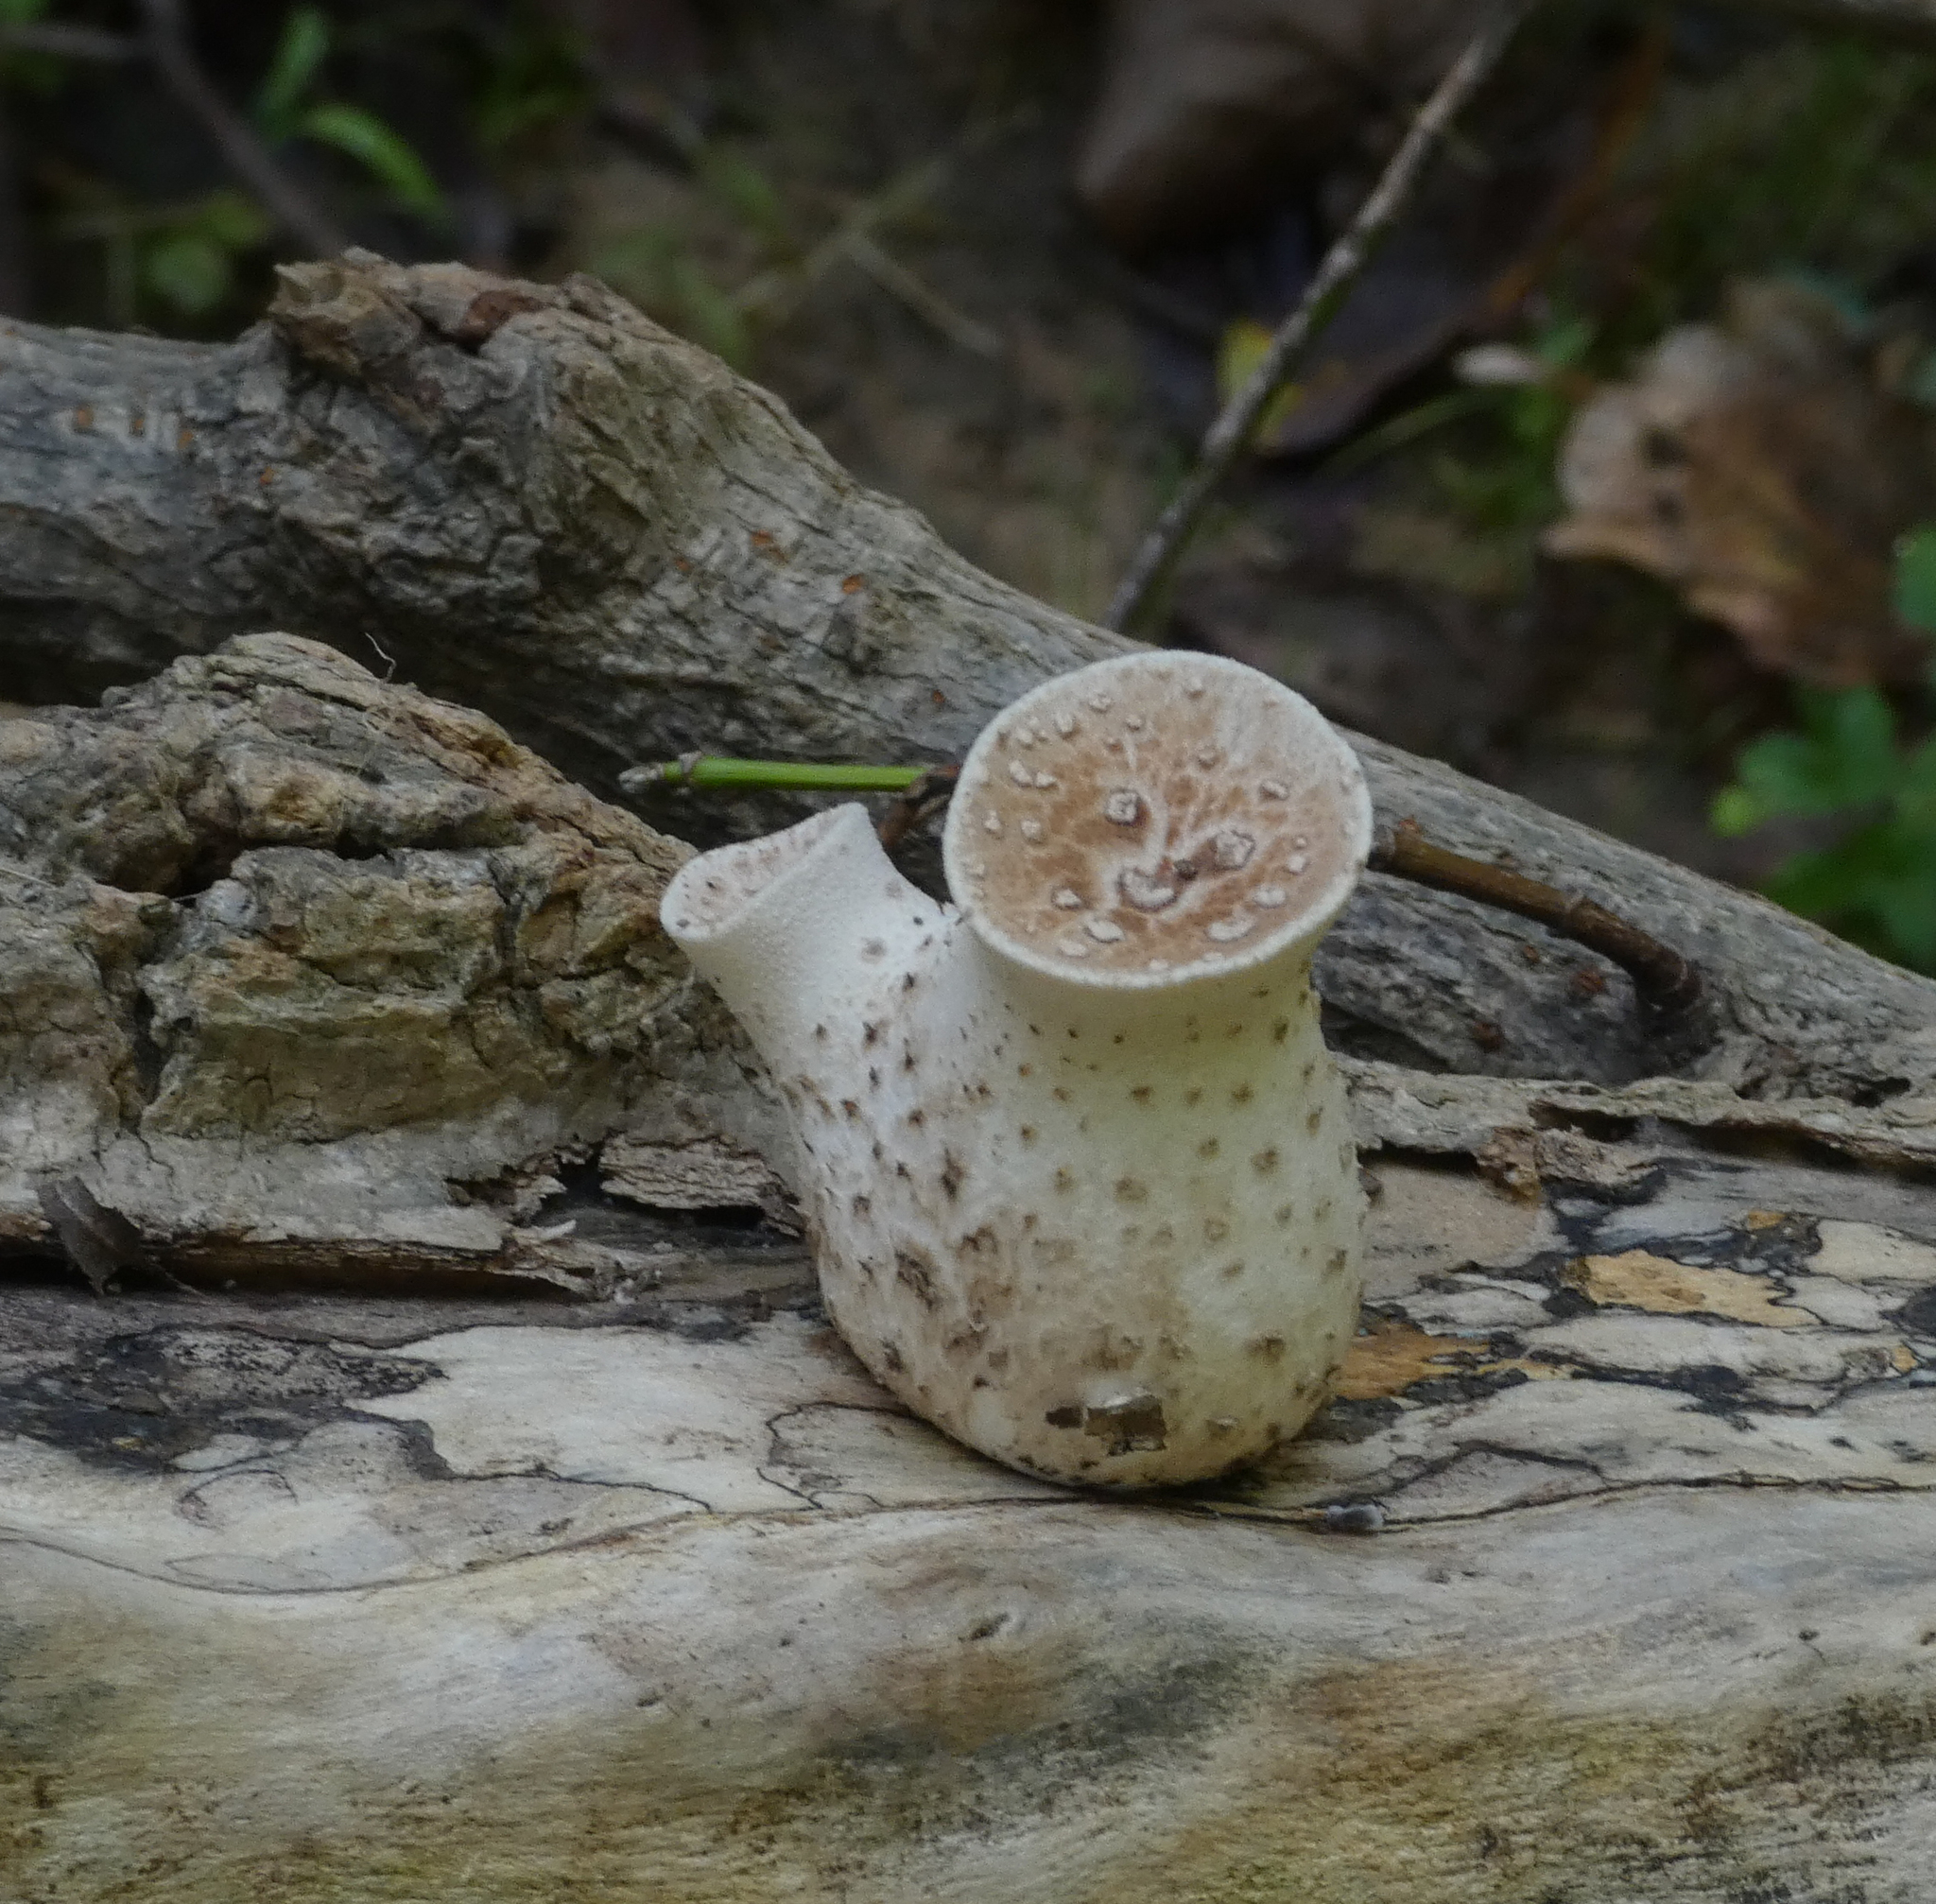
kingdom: Fungi
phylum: Basidiomycota
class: Agaricomycetes
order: Polyporales
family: Polyporaceae
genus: Cerioporus
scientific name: Cerioporus squamosus
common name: Dryad's saddle
